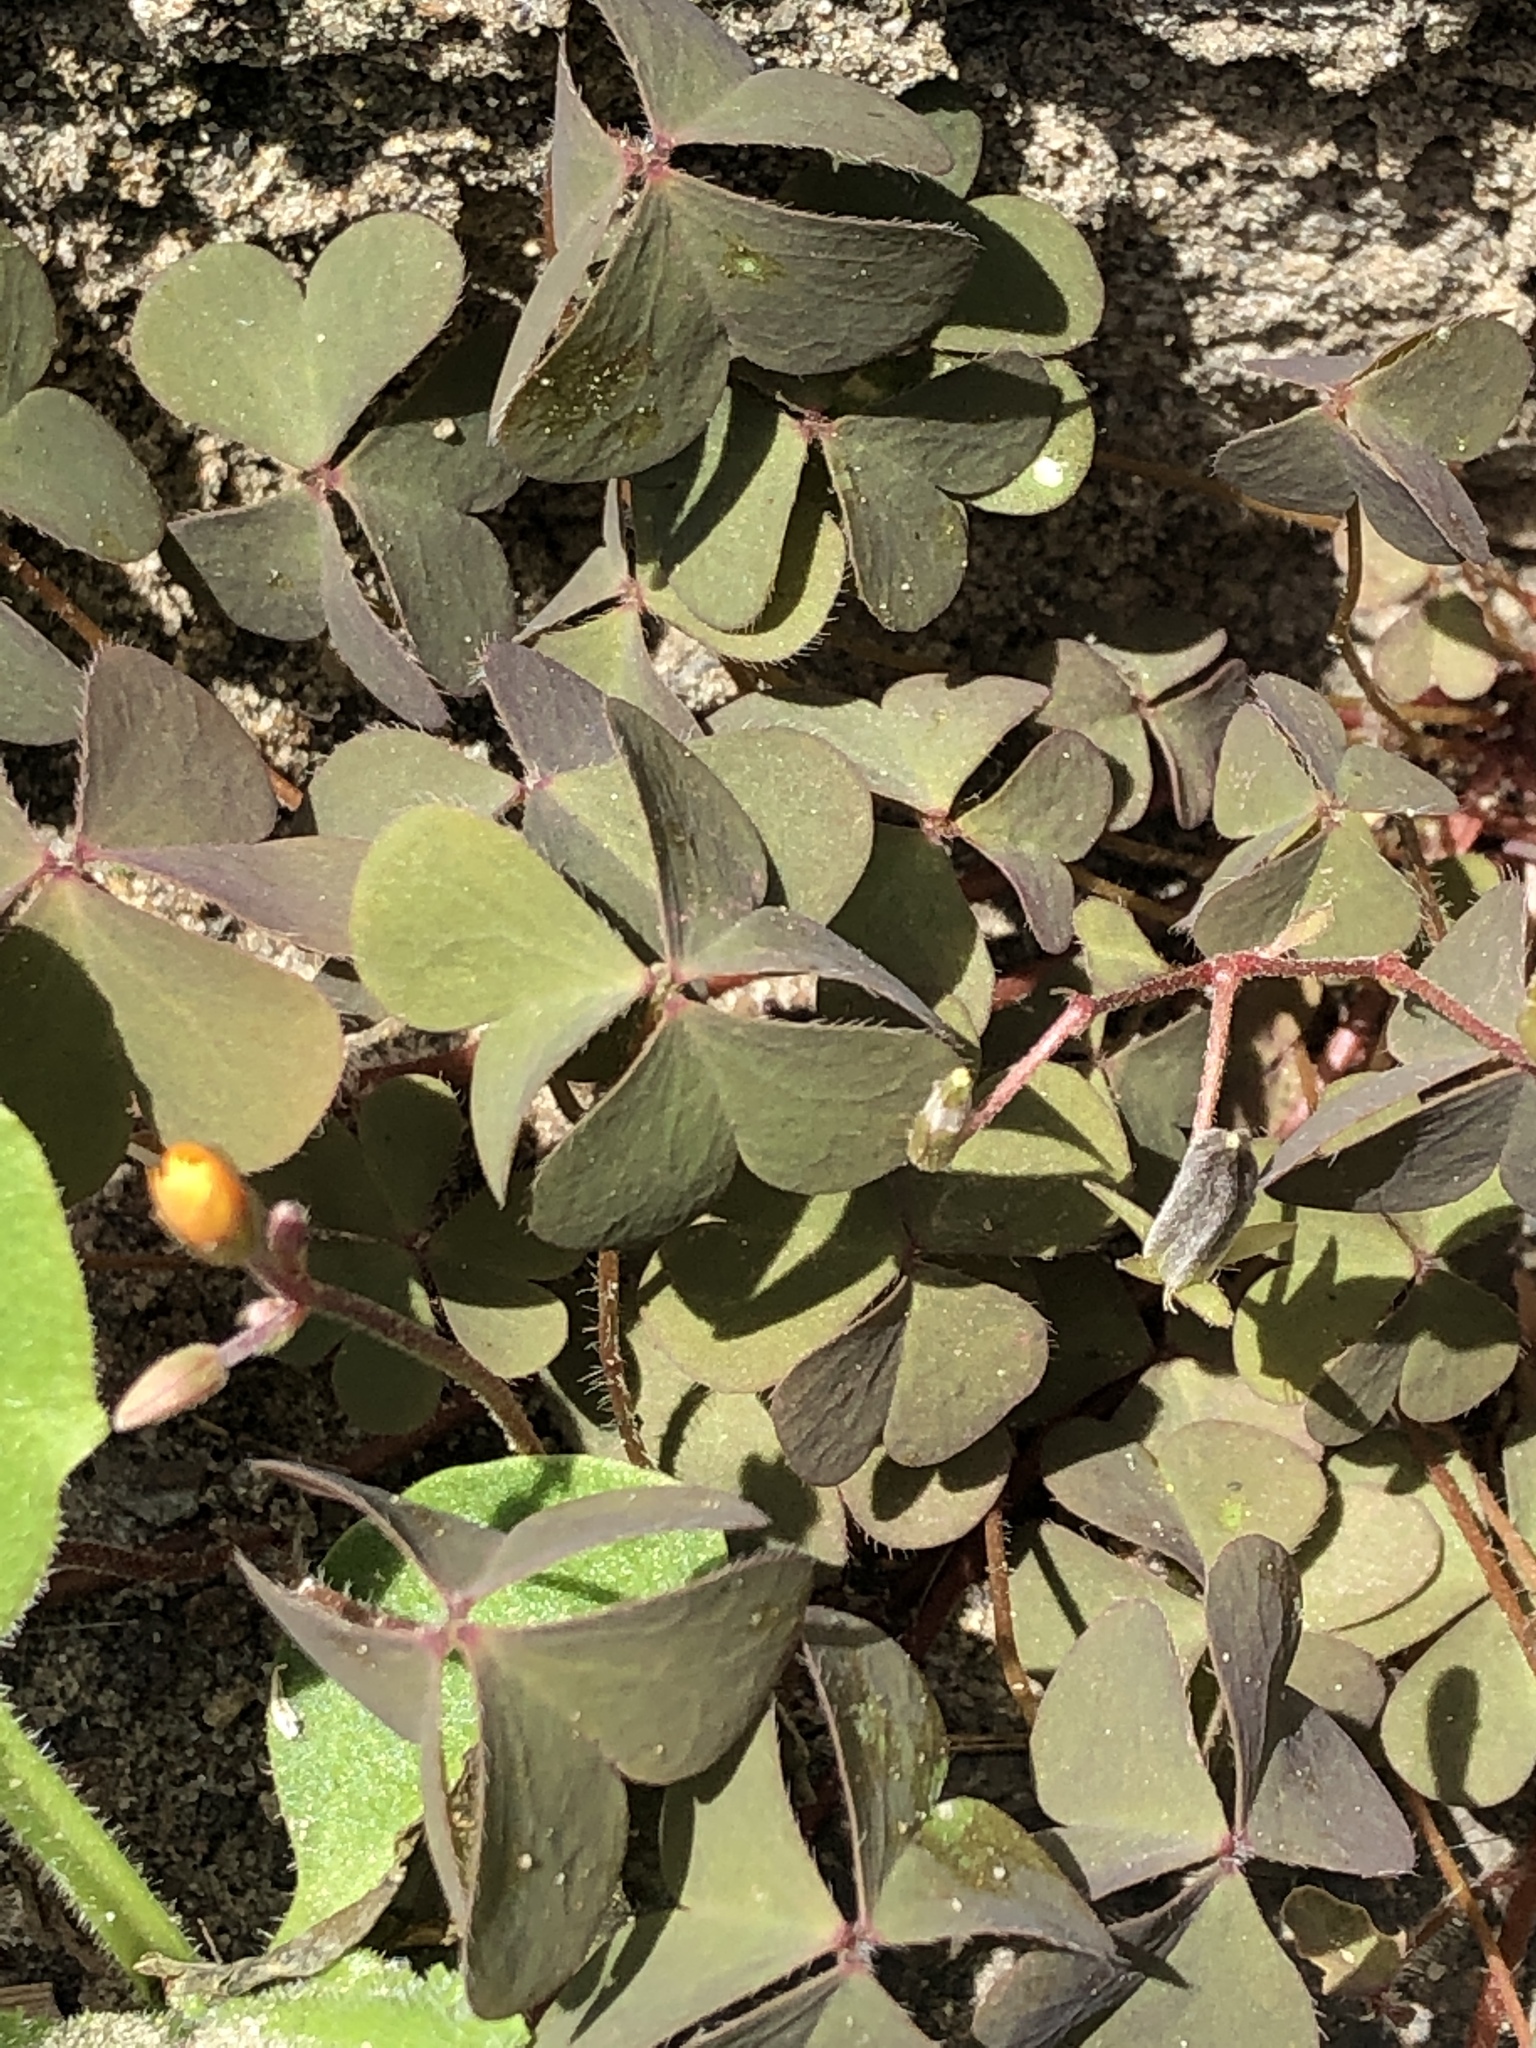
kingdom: Plantae
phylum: Tracheophyta
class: Magnoliopsida
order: Oxalidales
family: Oxalidaceae
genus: Oxalis
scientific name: Oxalis corniculata
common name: Procumbent yellow-sorrel
